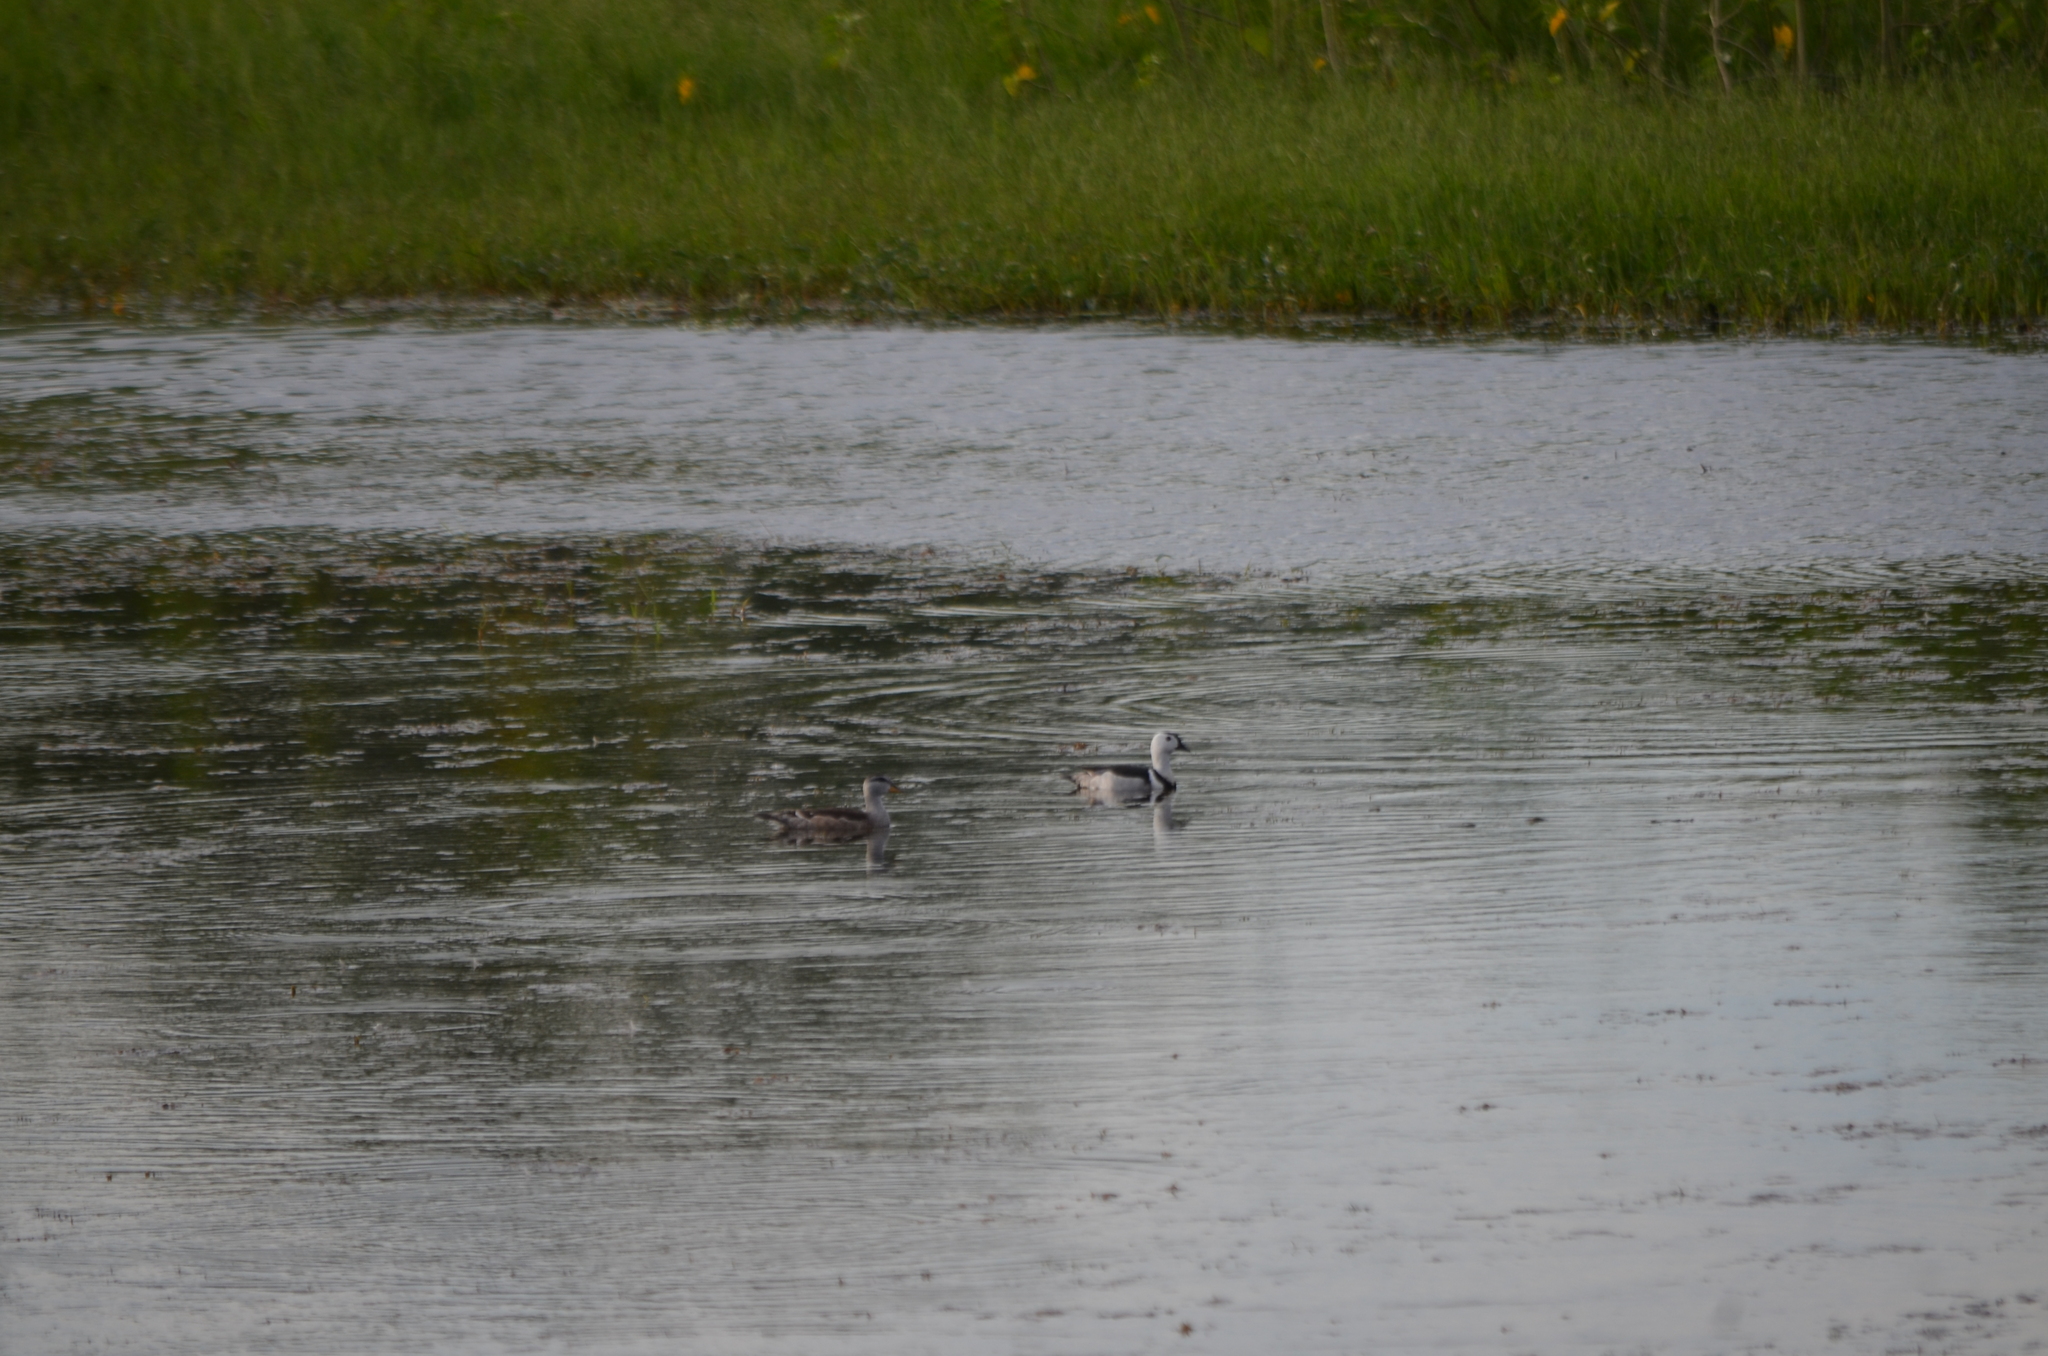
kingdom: Animalia
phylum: Chordata
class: Aves
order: Anseriformes
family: Anatidae
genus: Nettapus
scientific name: Nettapus coromandelianus
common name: Cotton pygmy-goose
